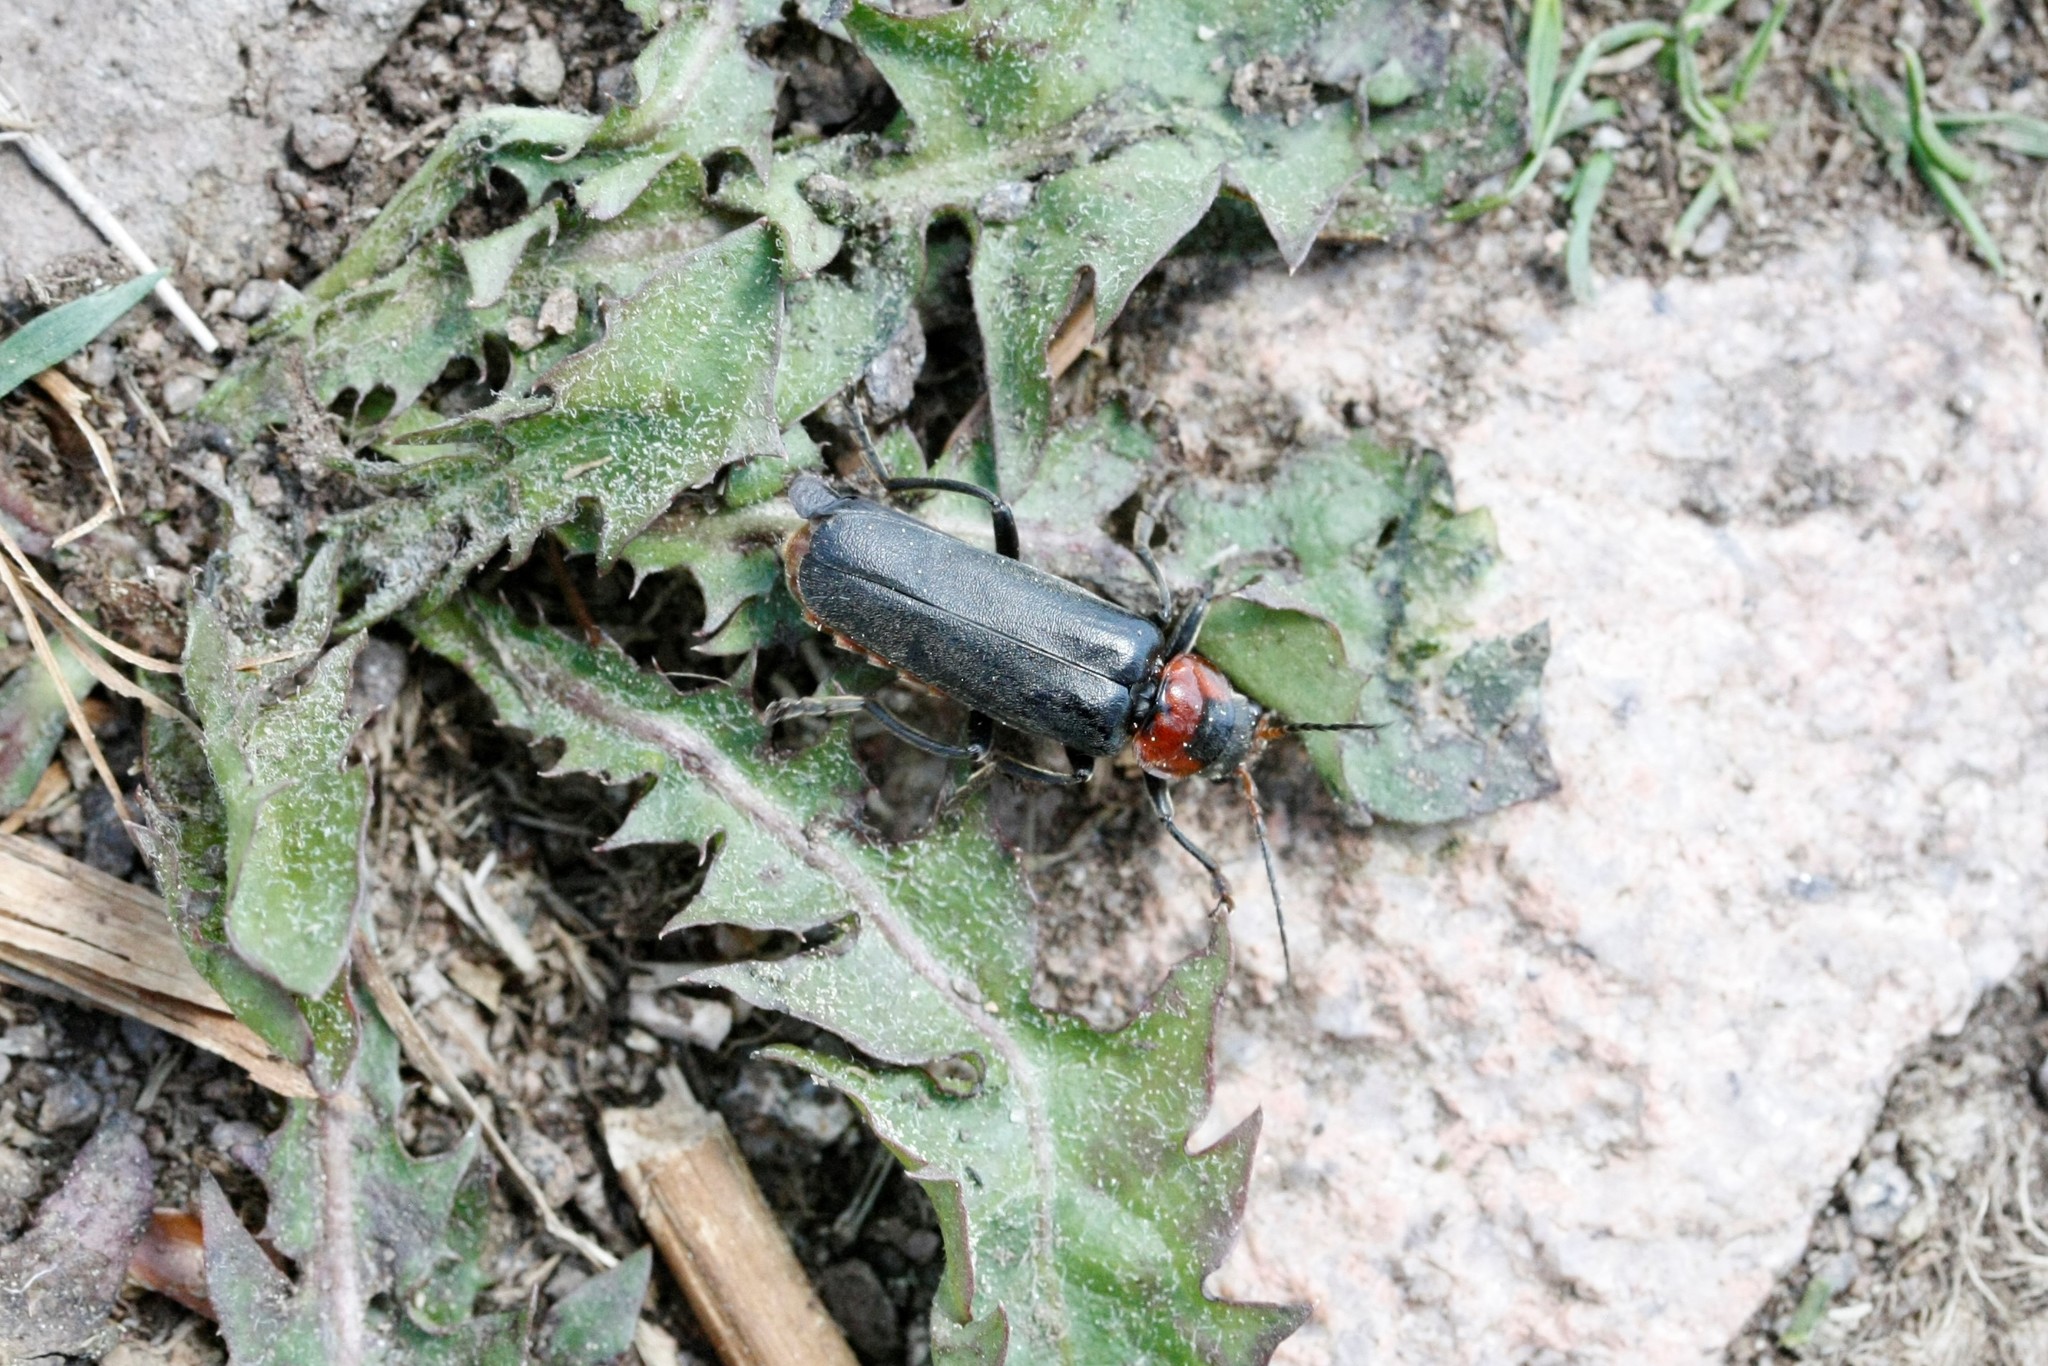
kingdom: Animalia
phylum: Arthropoda
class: Insecta
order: Coleoptera
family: Cantharidae
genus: Cantharis
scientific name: Cantharis fusca
